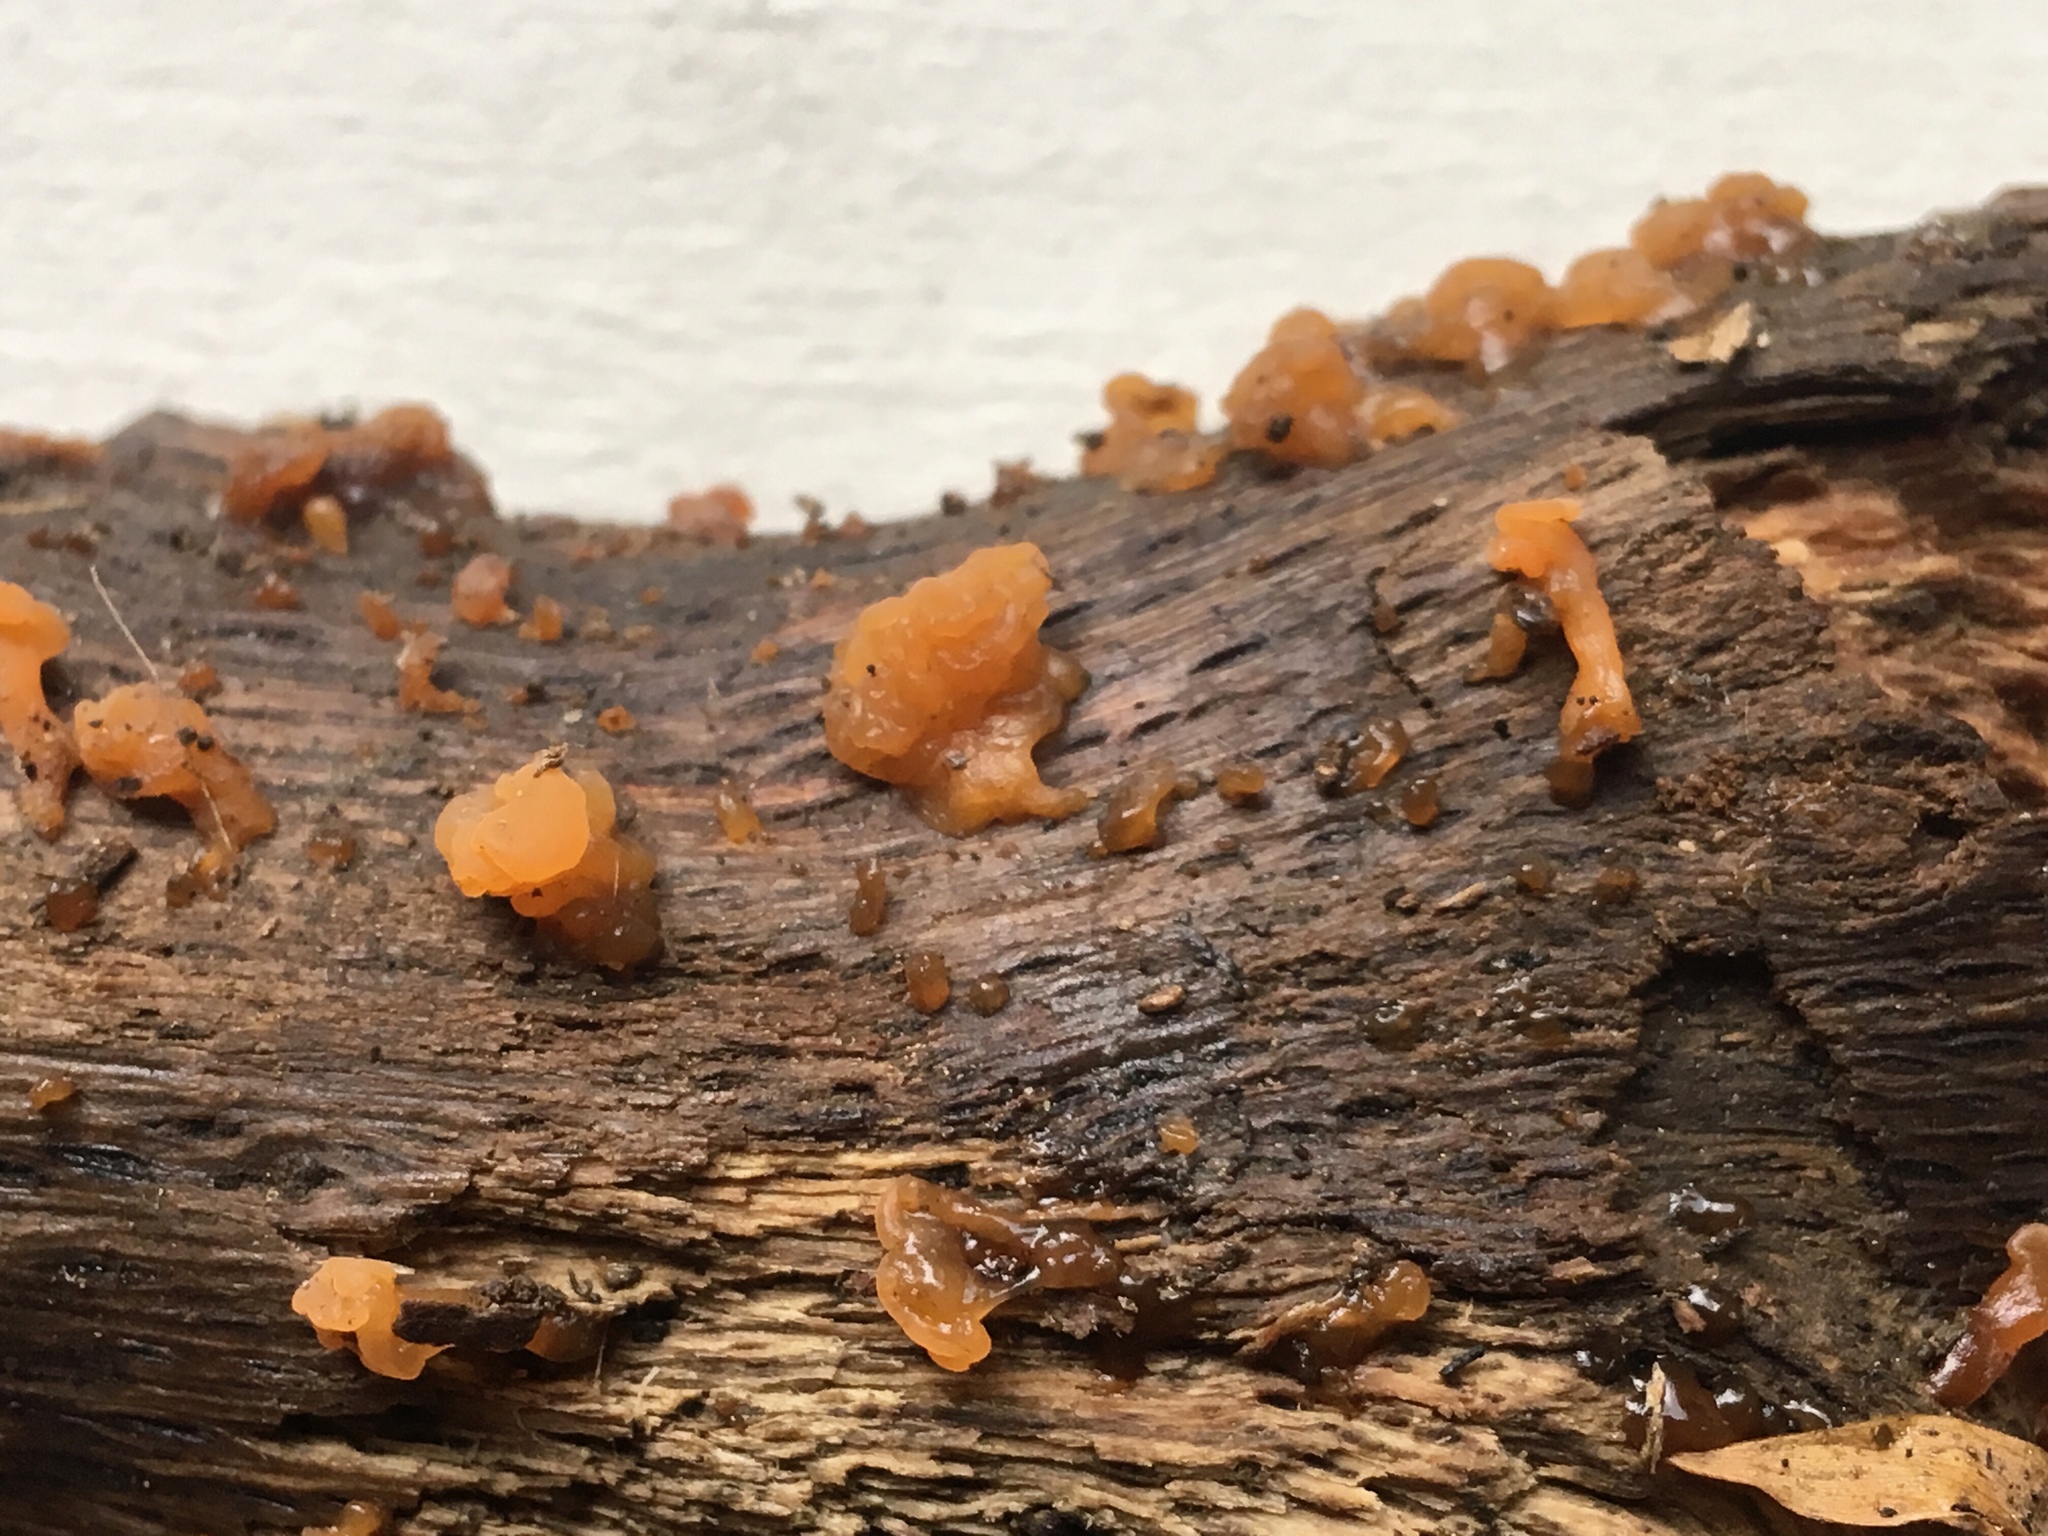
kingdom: Fungi
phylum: Basidiomycota
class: Dacrymycetes
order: Dacrymycetales
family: Dacrymycetaceae
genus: Dacrymyces
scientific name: Dacrymyces stillatus
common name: Common jelly spot
